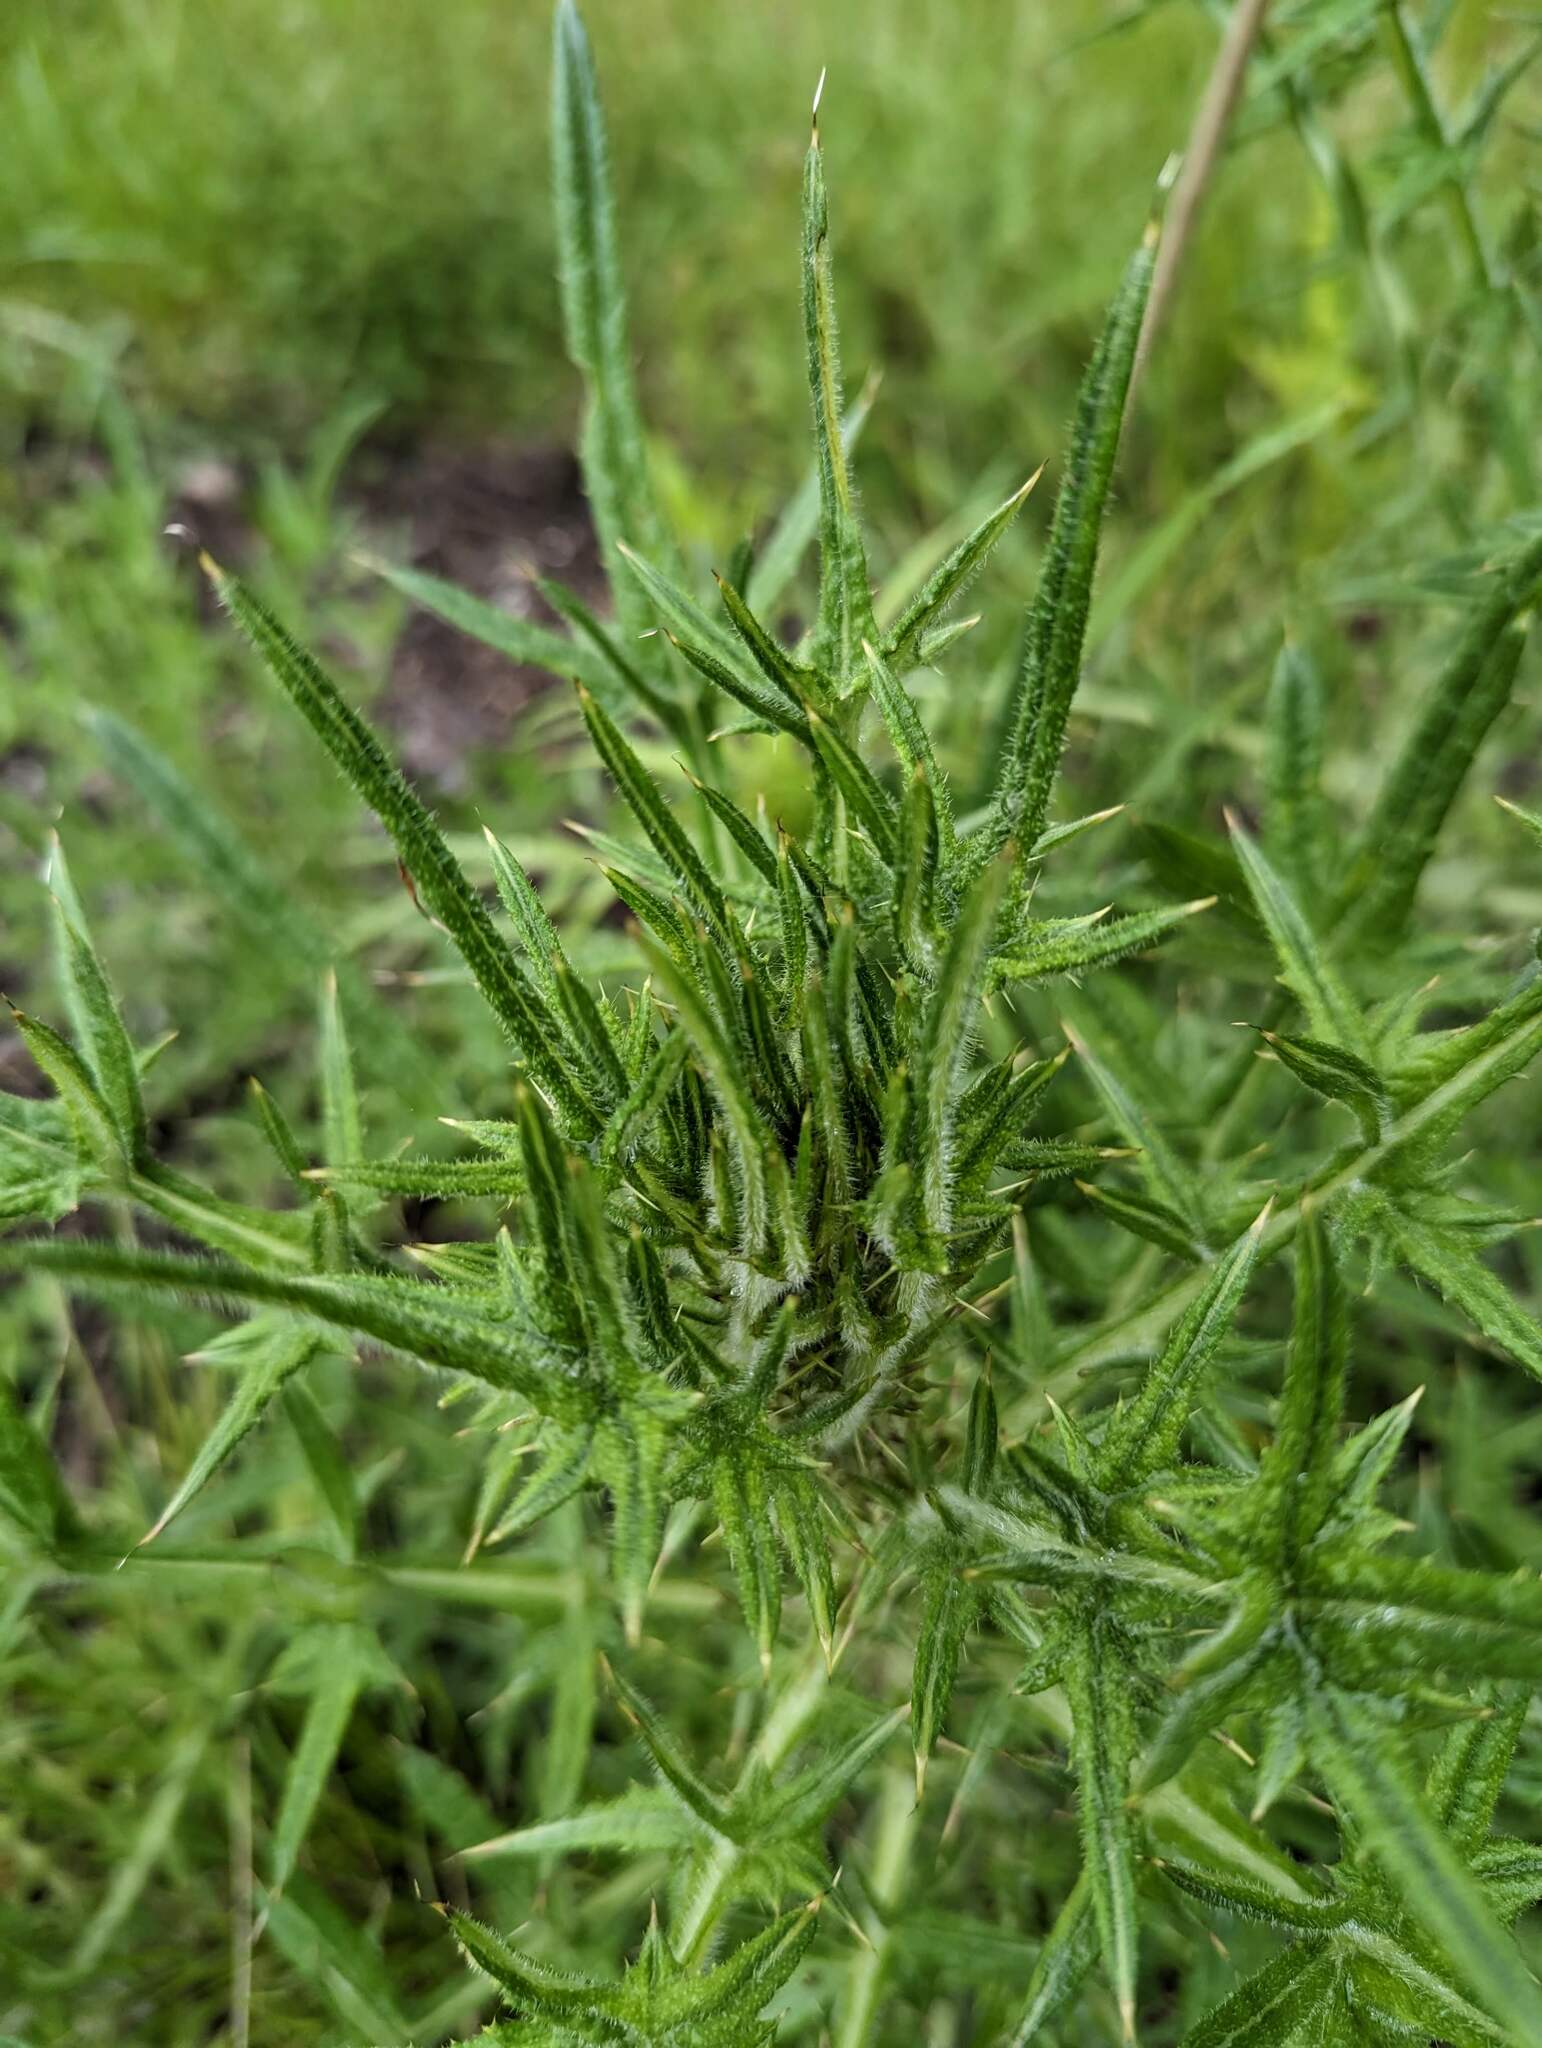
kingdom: Plantae
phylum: Tracheophyta
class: Magnoliopsida
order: Asterales
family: Asteraceae
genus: Cirsium
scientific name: Cirsium vulgare
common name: Bull thistle
